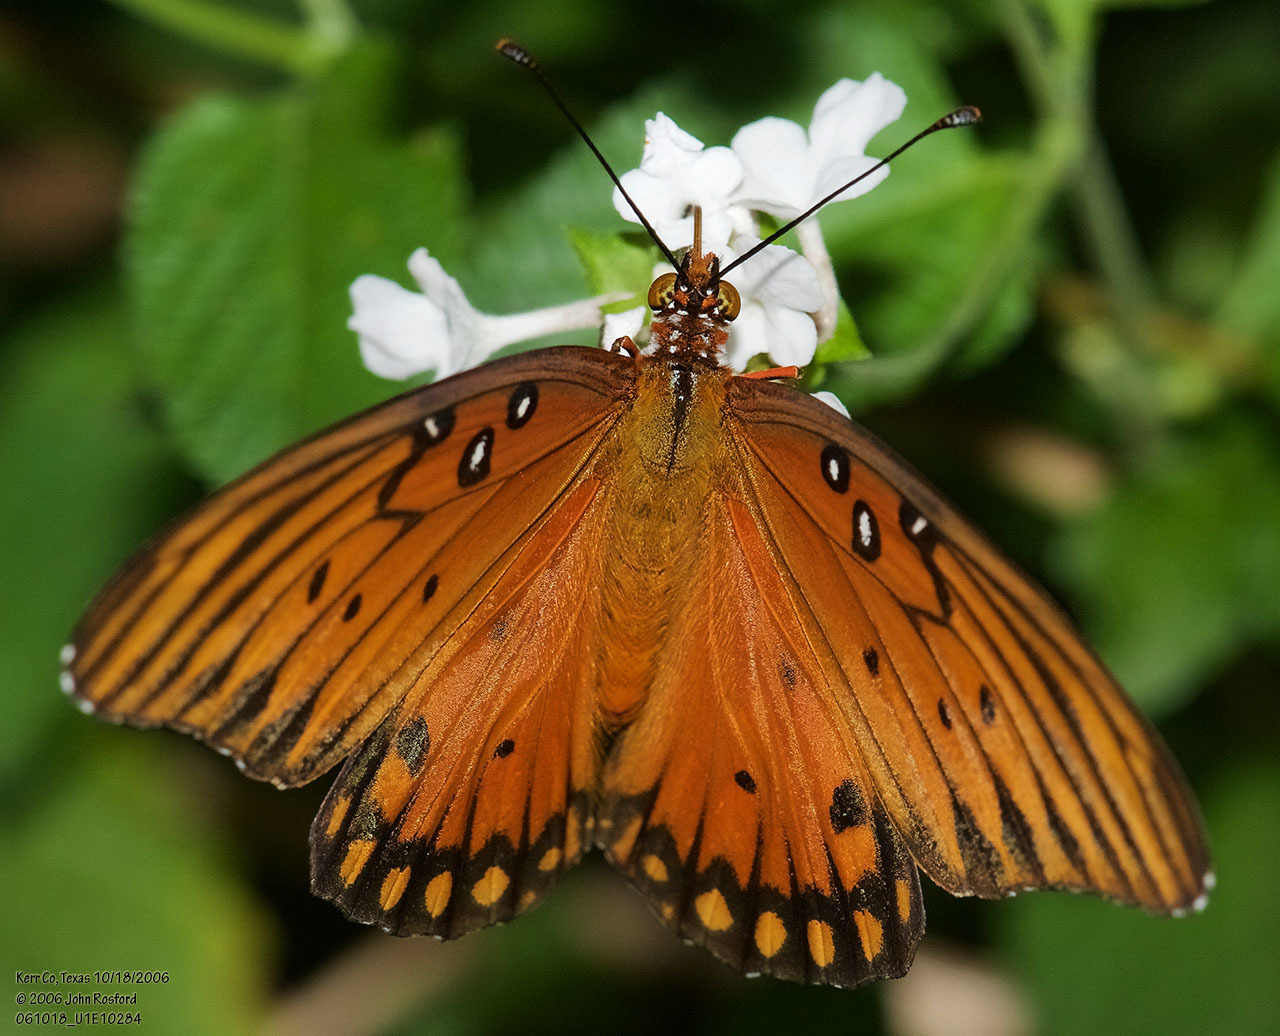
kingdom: Animalia
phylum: Arthropoda
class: Insecta
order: Lepidoptera
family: Nymphalidae
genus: Dione
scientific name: Dione vanillae
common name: Gulf fritillary
